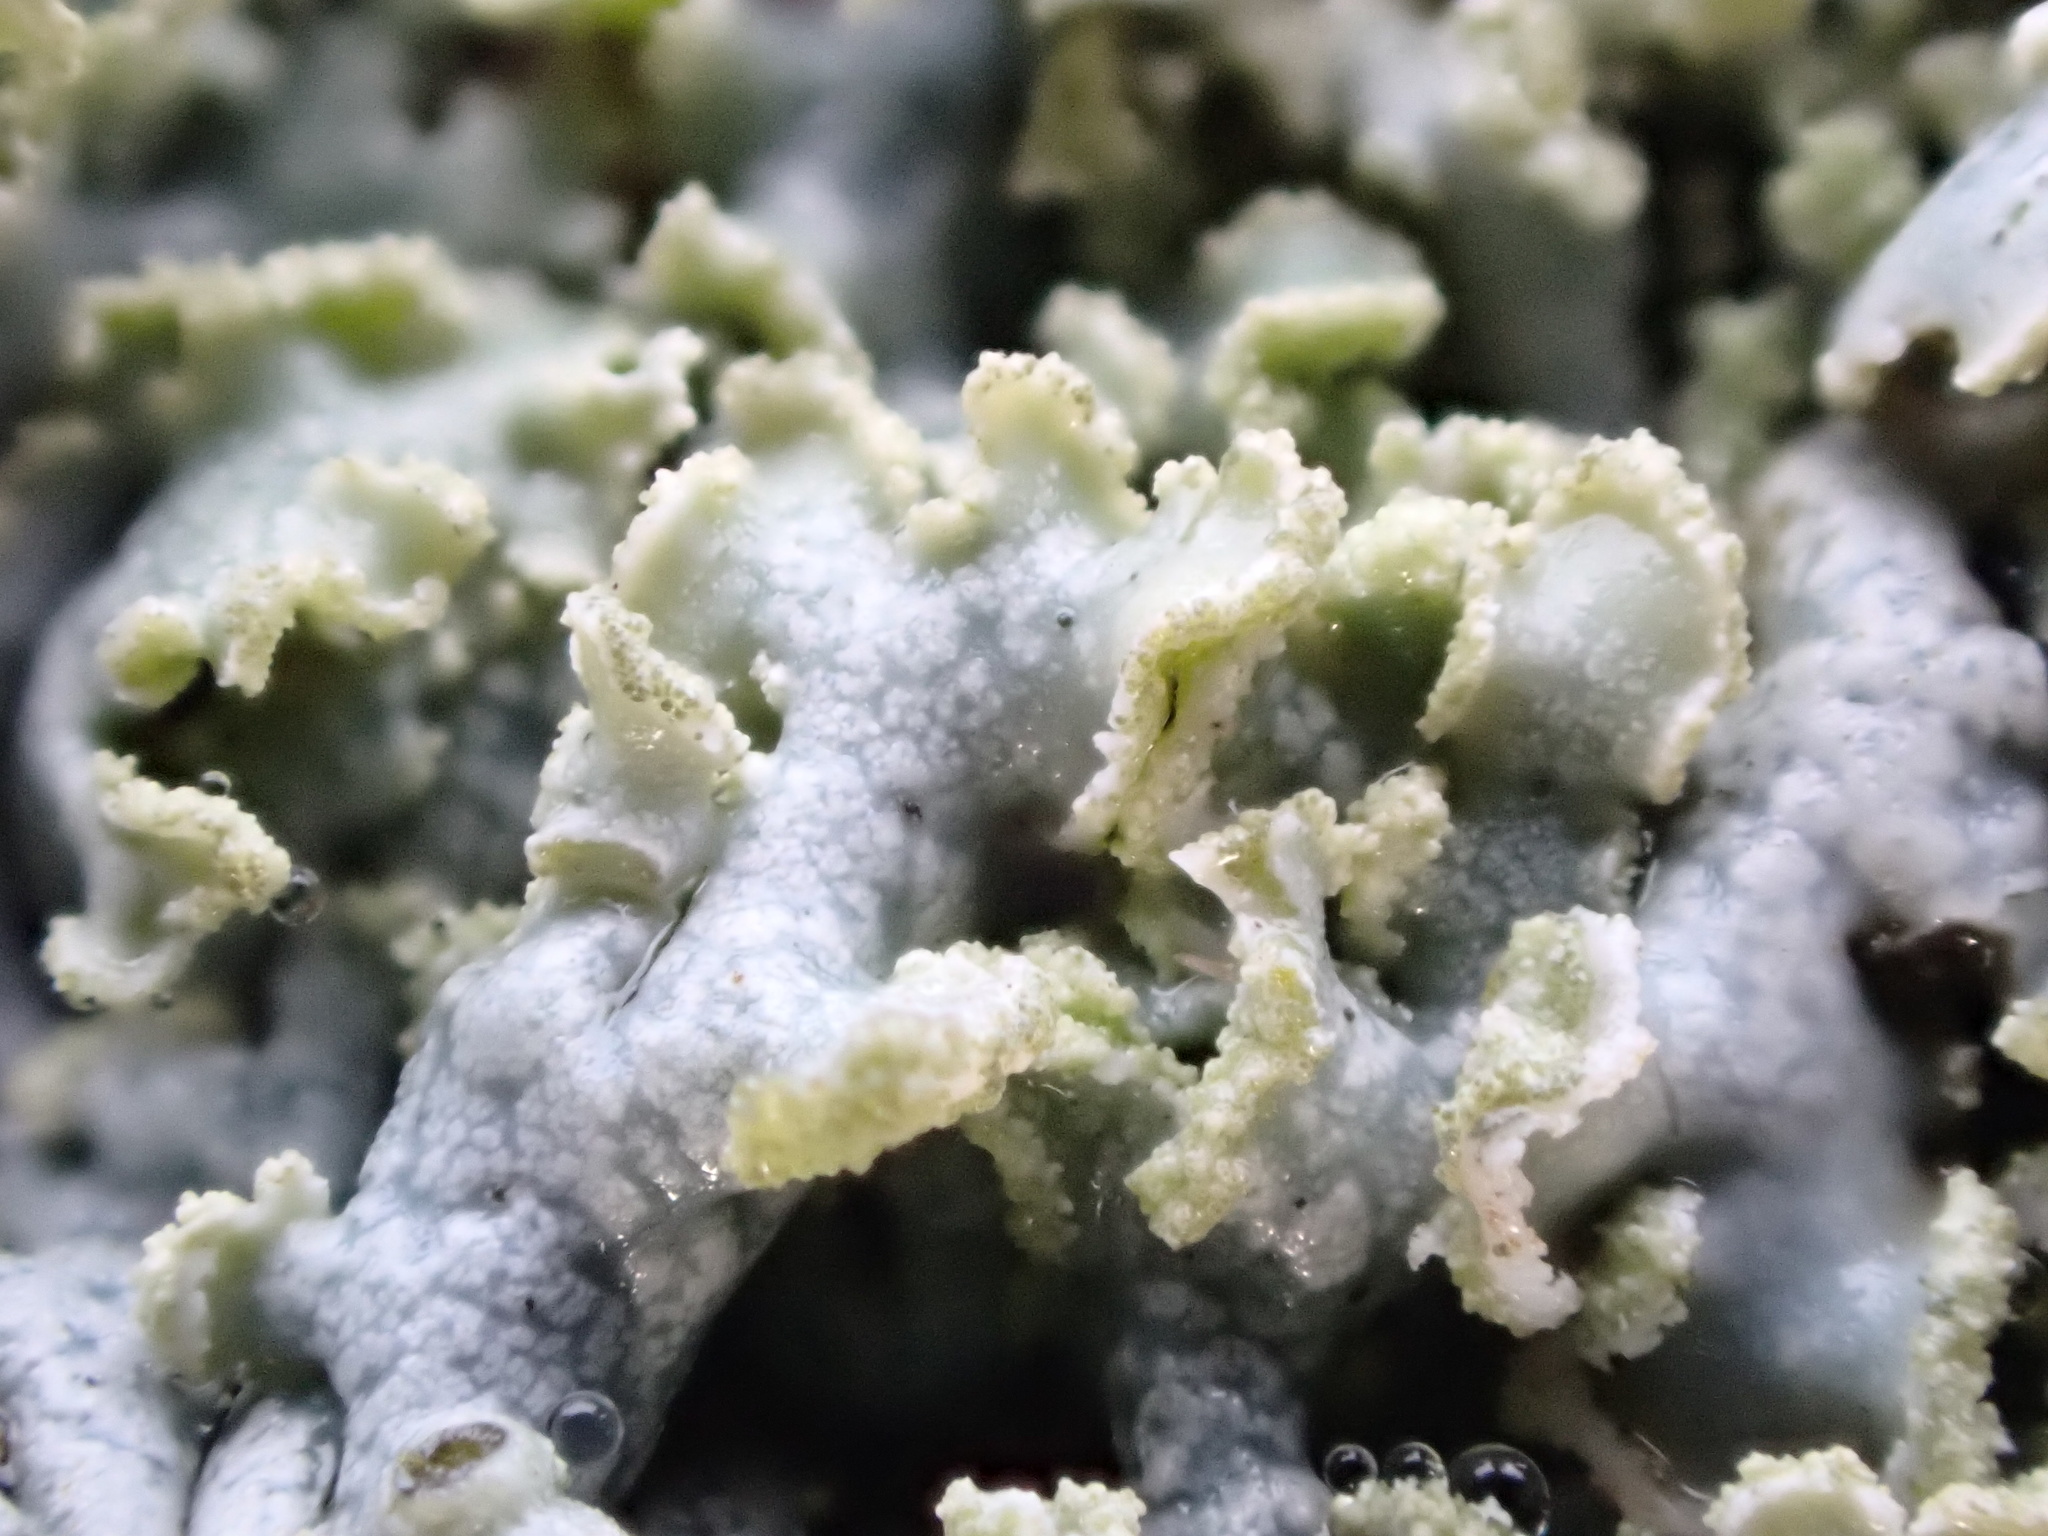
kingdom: Fungi
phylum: Ascomycota
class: Lecanoromycetes
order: Caliciales
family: Physciaceae
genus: Physcia
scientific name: Physcia tenella
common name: Fringed rosette lichen
